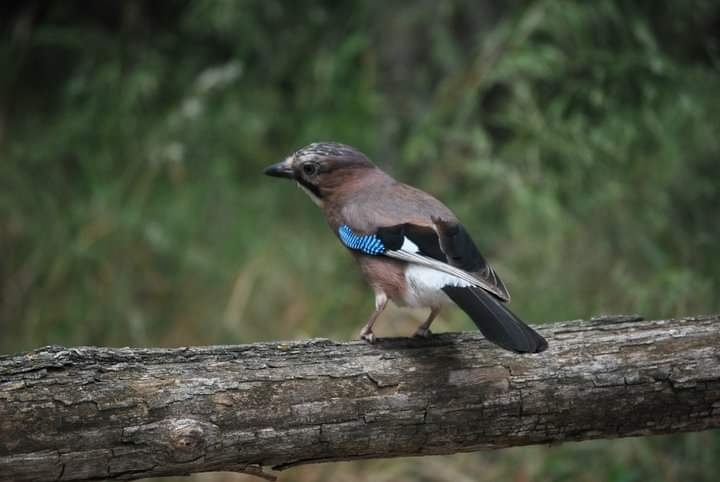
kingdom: Animalia
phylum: Chordata
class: Aves
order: Passeriformes
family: Corvidae
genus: Garrulus
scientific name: Garrulus glandarius
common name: Eurasian jay
